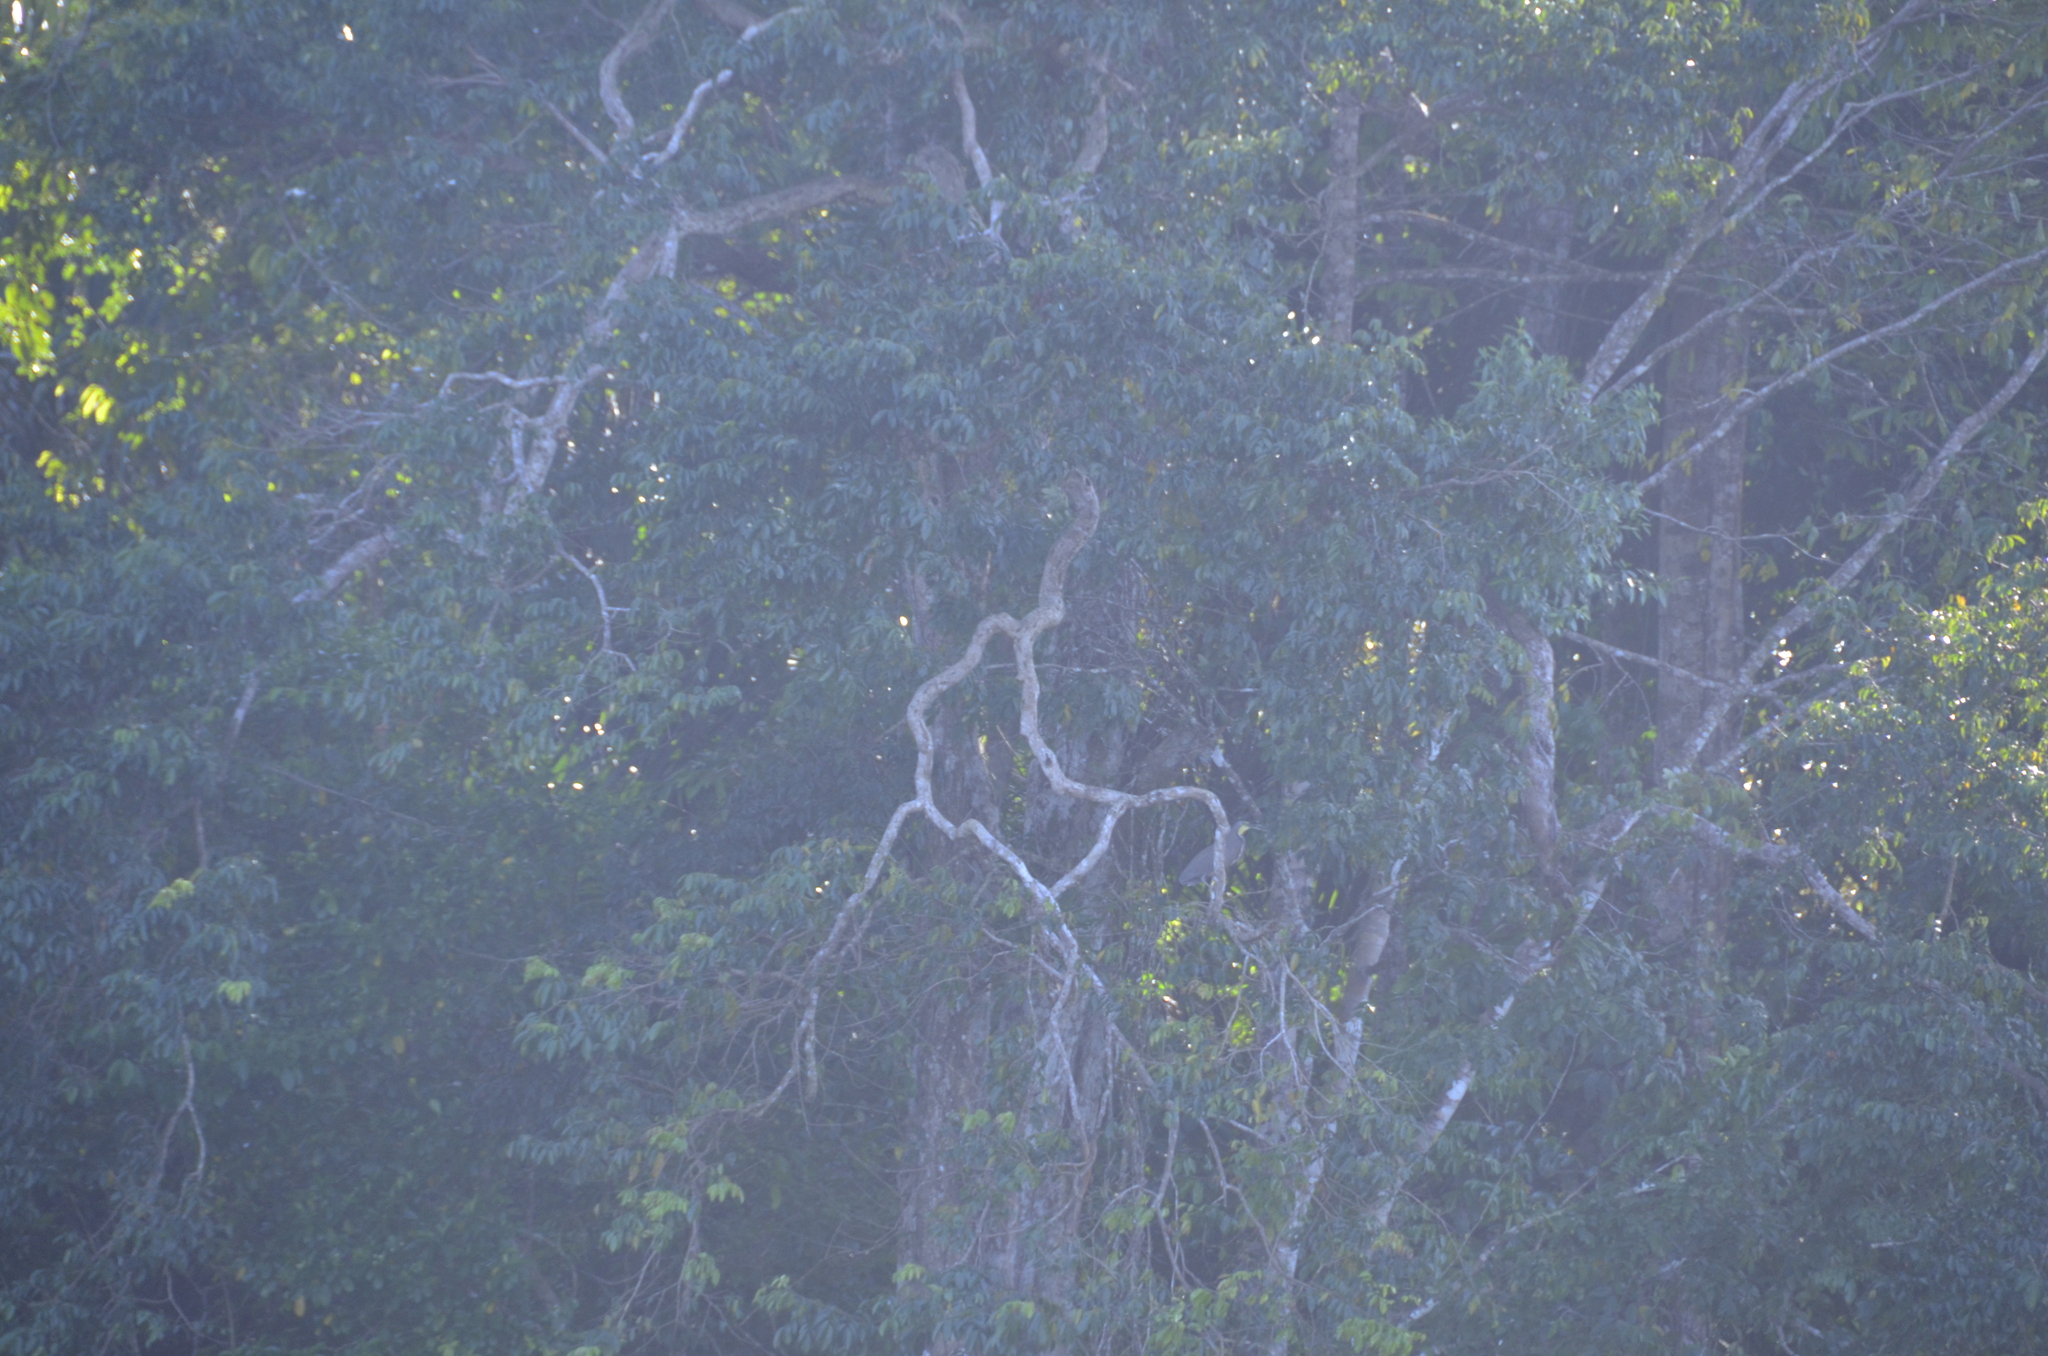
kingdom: Animalia
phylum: Chordata
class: Aves
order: Pelecaniformes
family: Ardeidae
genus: Tigrisoma
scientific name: Tigrisoma mexicanum
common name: Bare-throated tiger-heron
